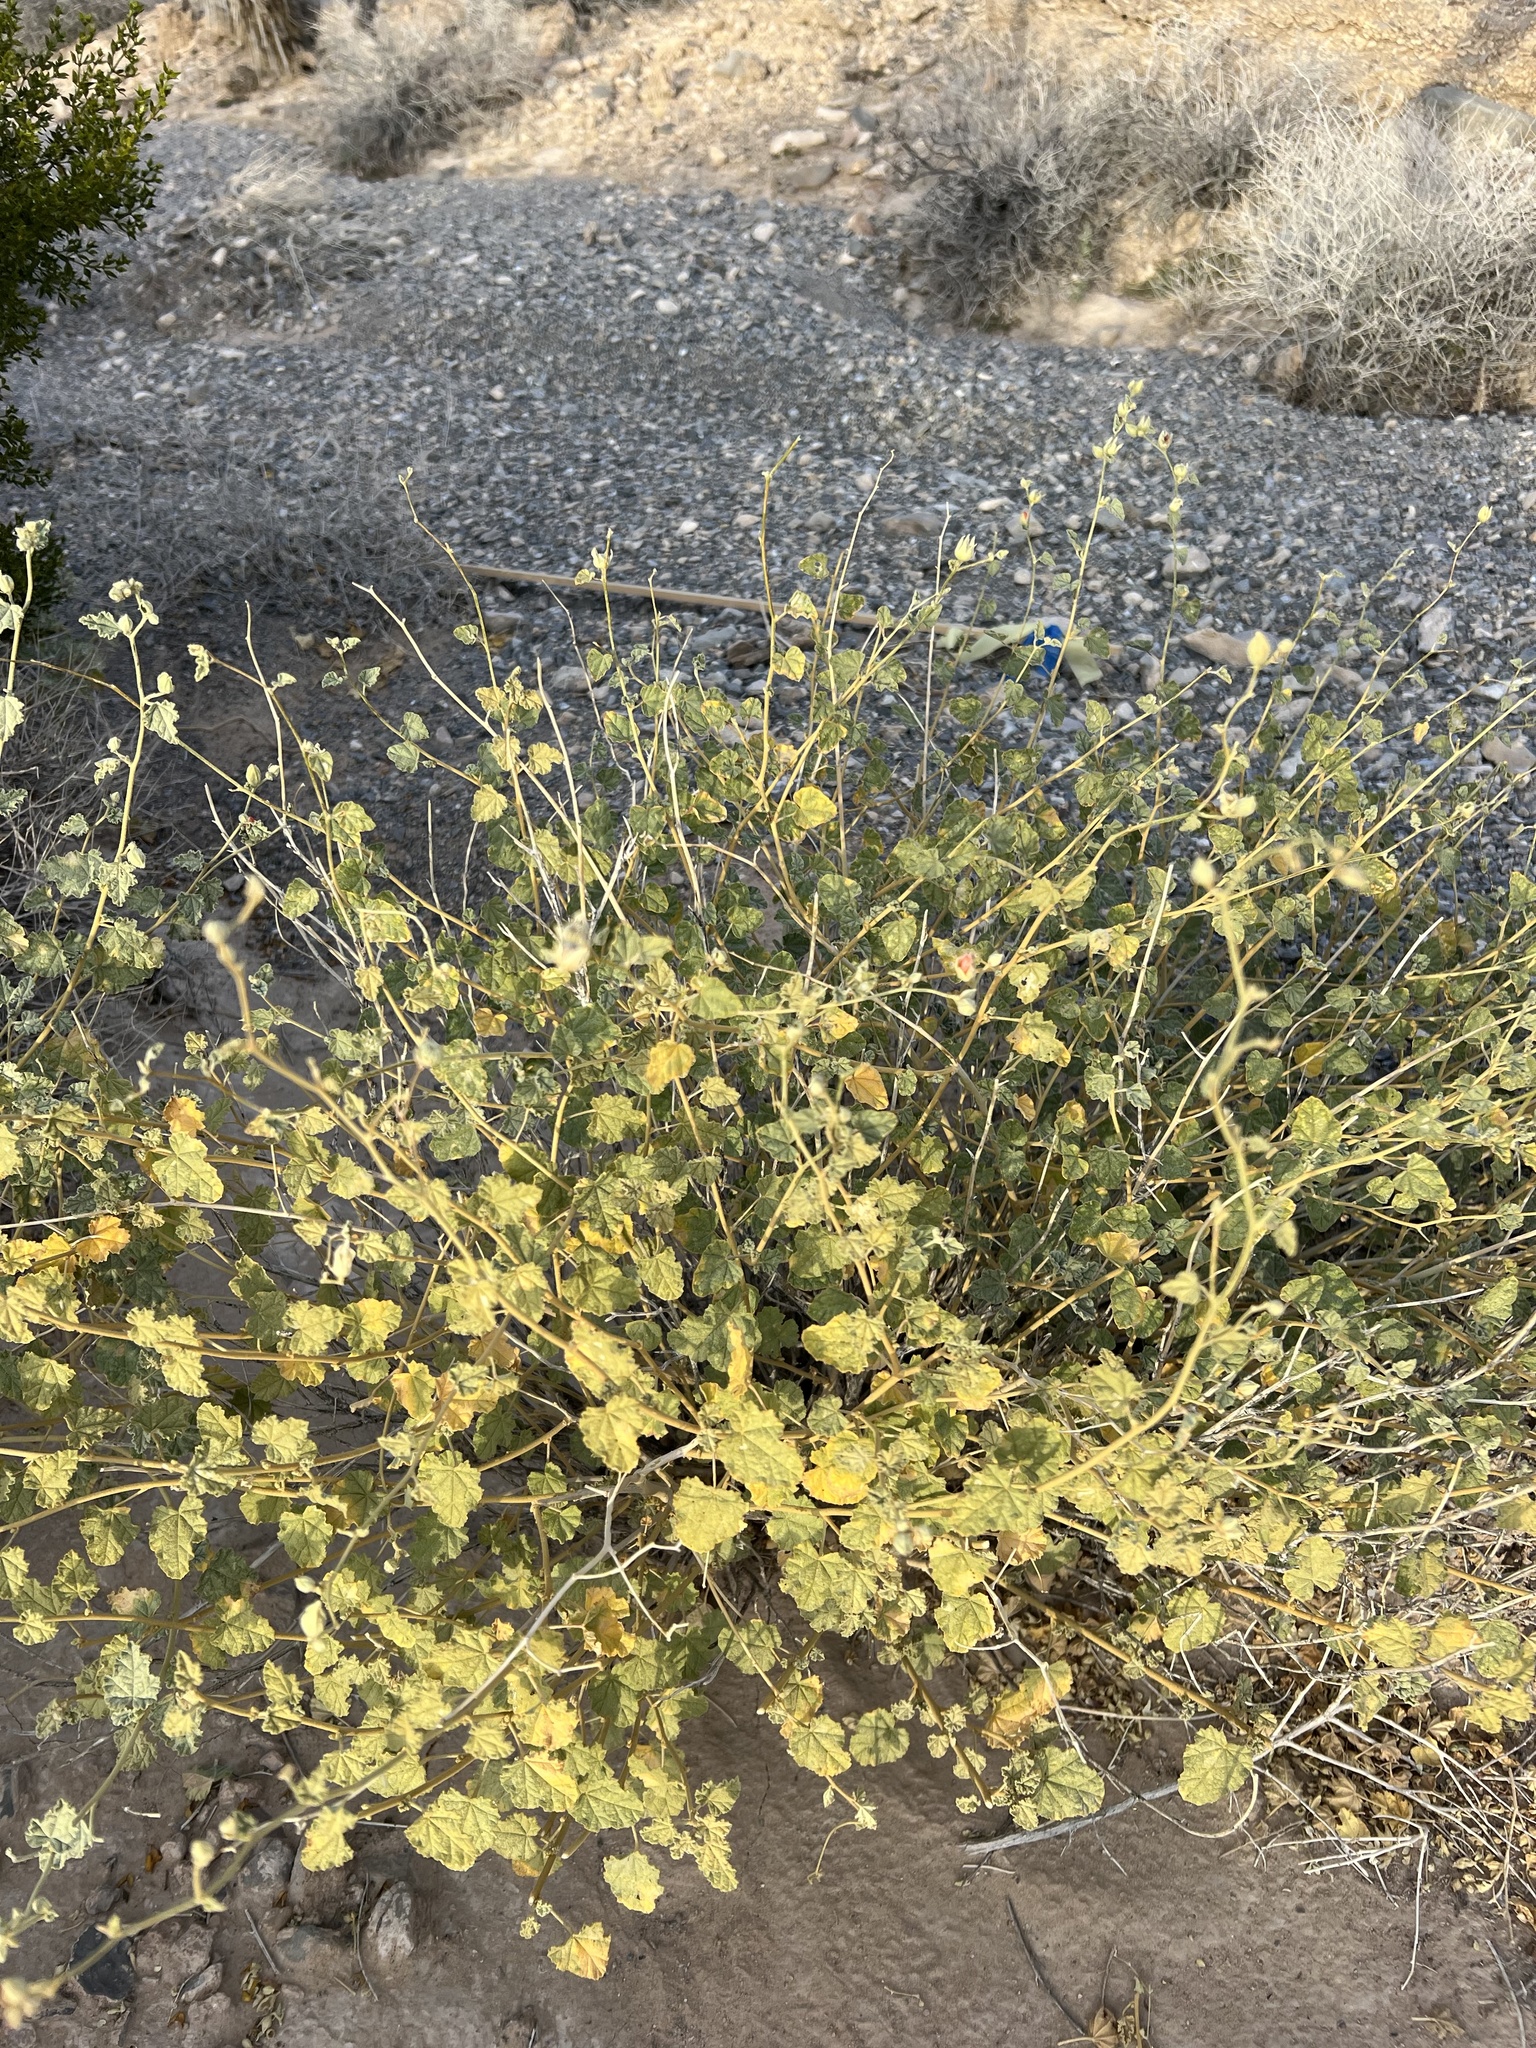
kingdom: Plantae
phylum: Tracheophyta
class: Magnoliopsida
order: Malvales
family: Malvaceae
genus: Sphaeralcea
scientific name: Sphaeralcea ambigua
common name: Apricot globe-mallow
